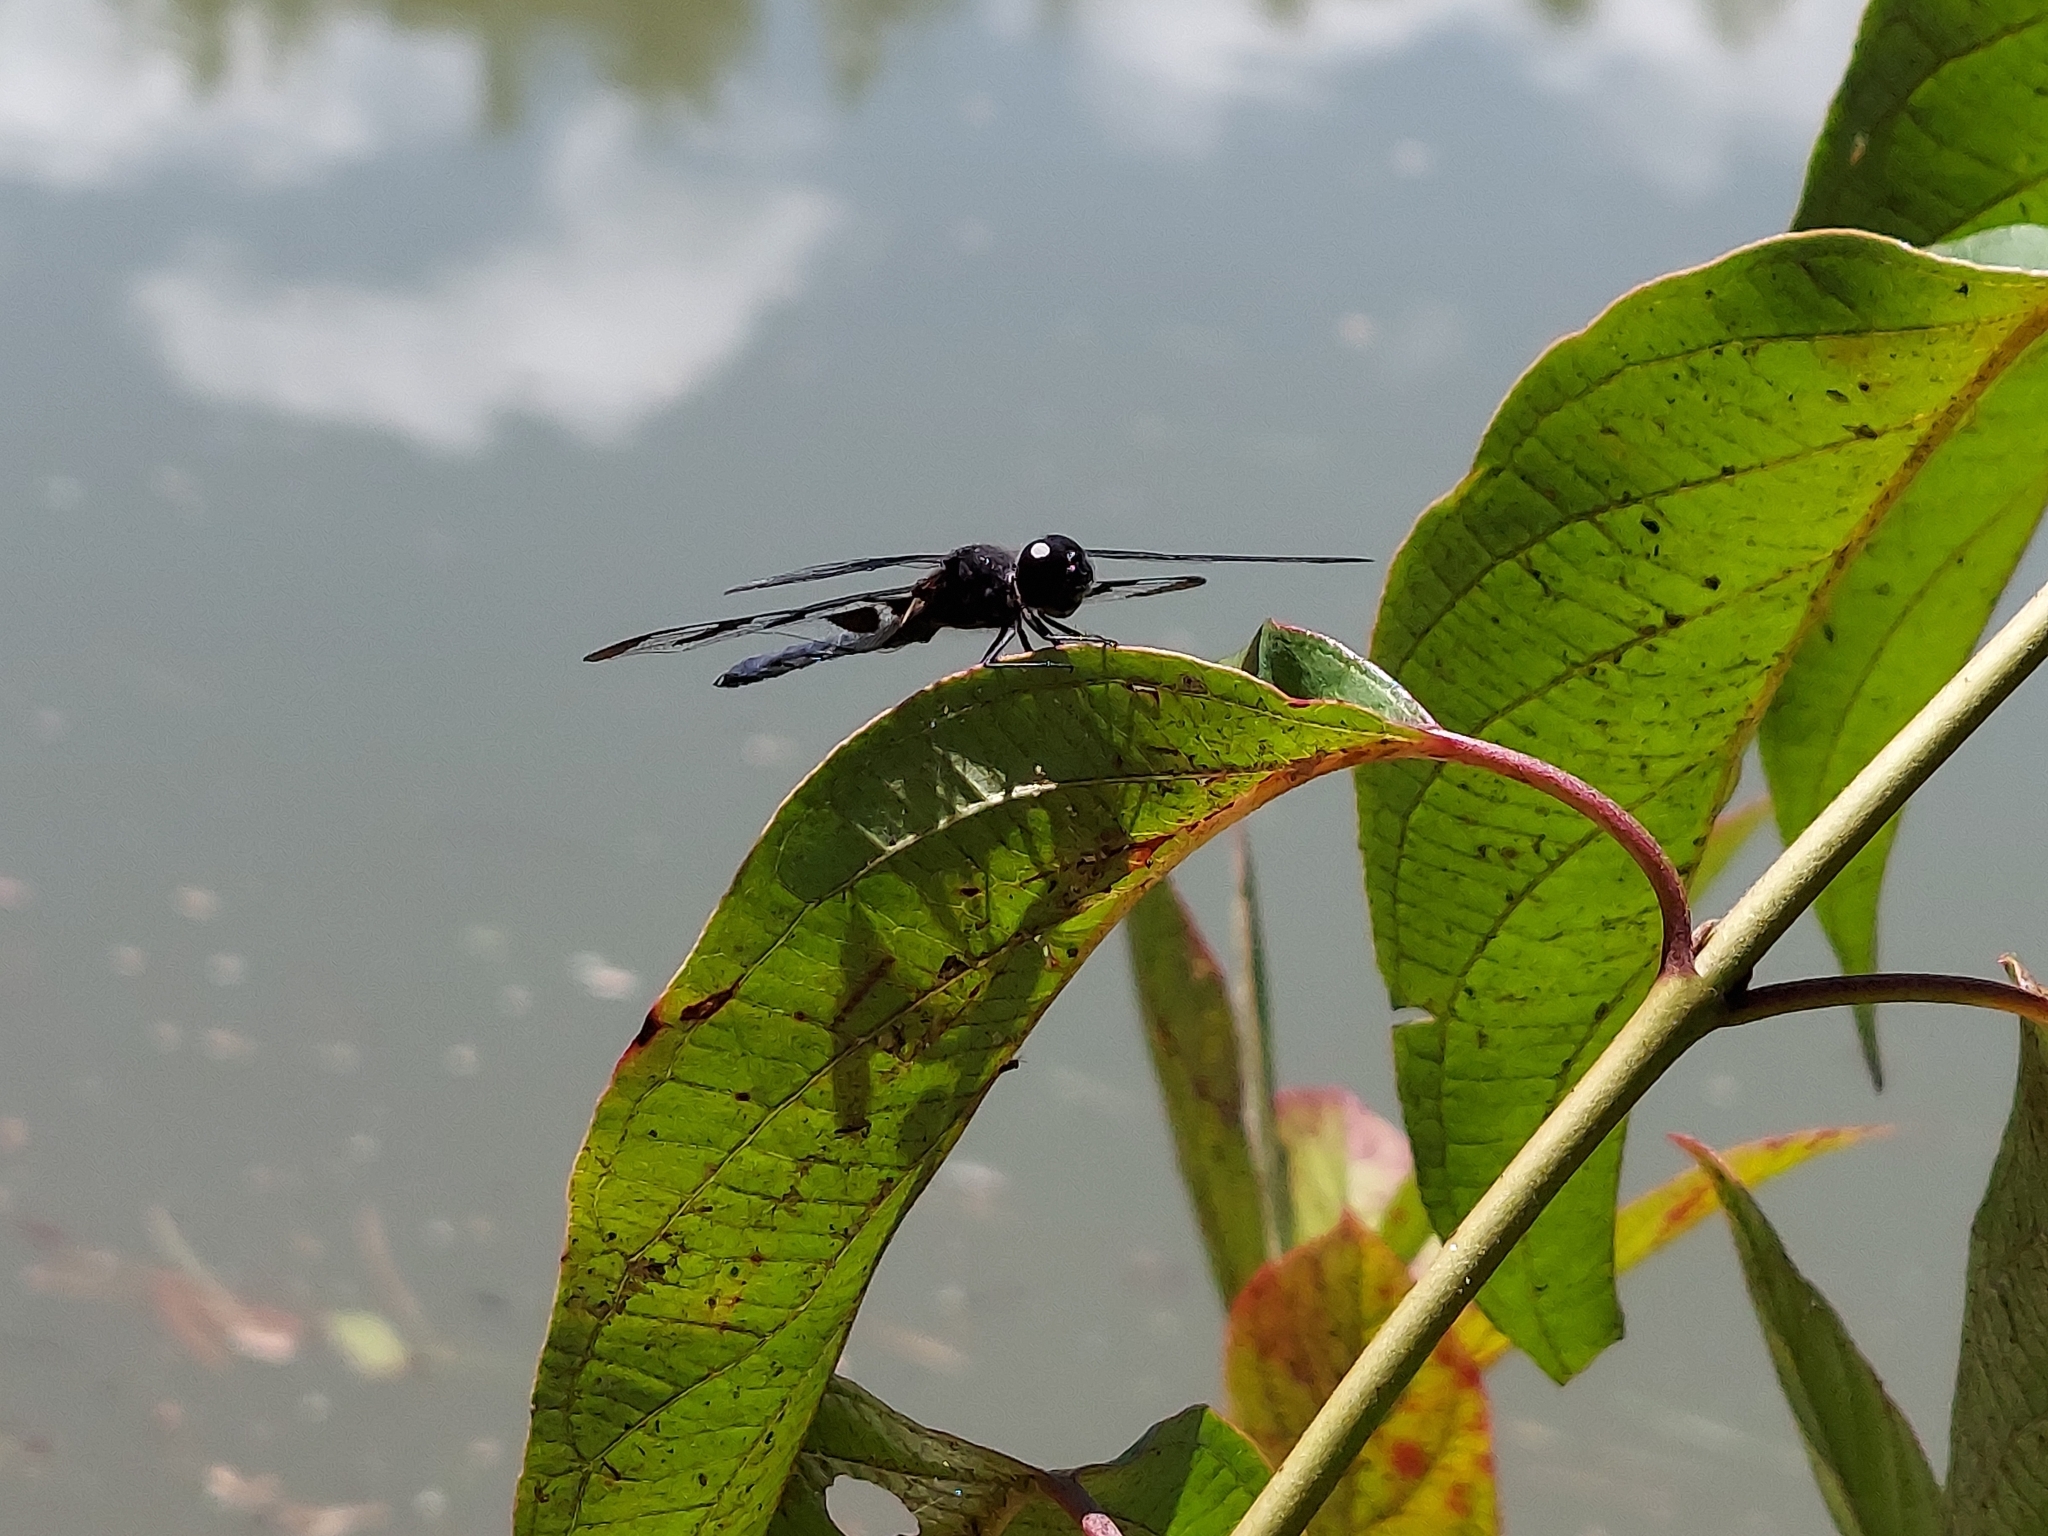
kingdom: Animalia
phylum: Arthropoda
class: Insecta
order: Odonata
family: Libellulidae
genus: Celithemis
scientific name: Celithemis fasciata
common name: Banded pennant
